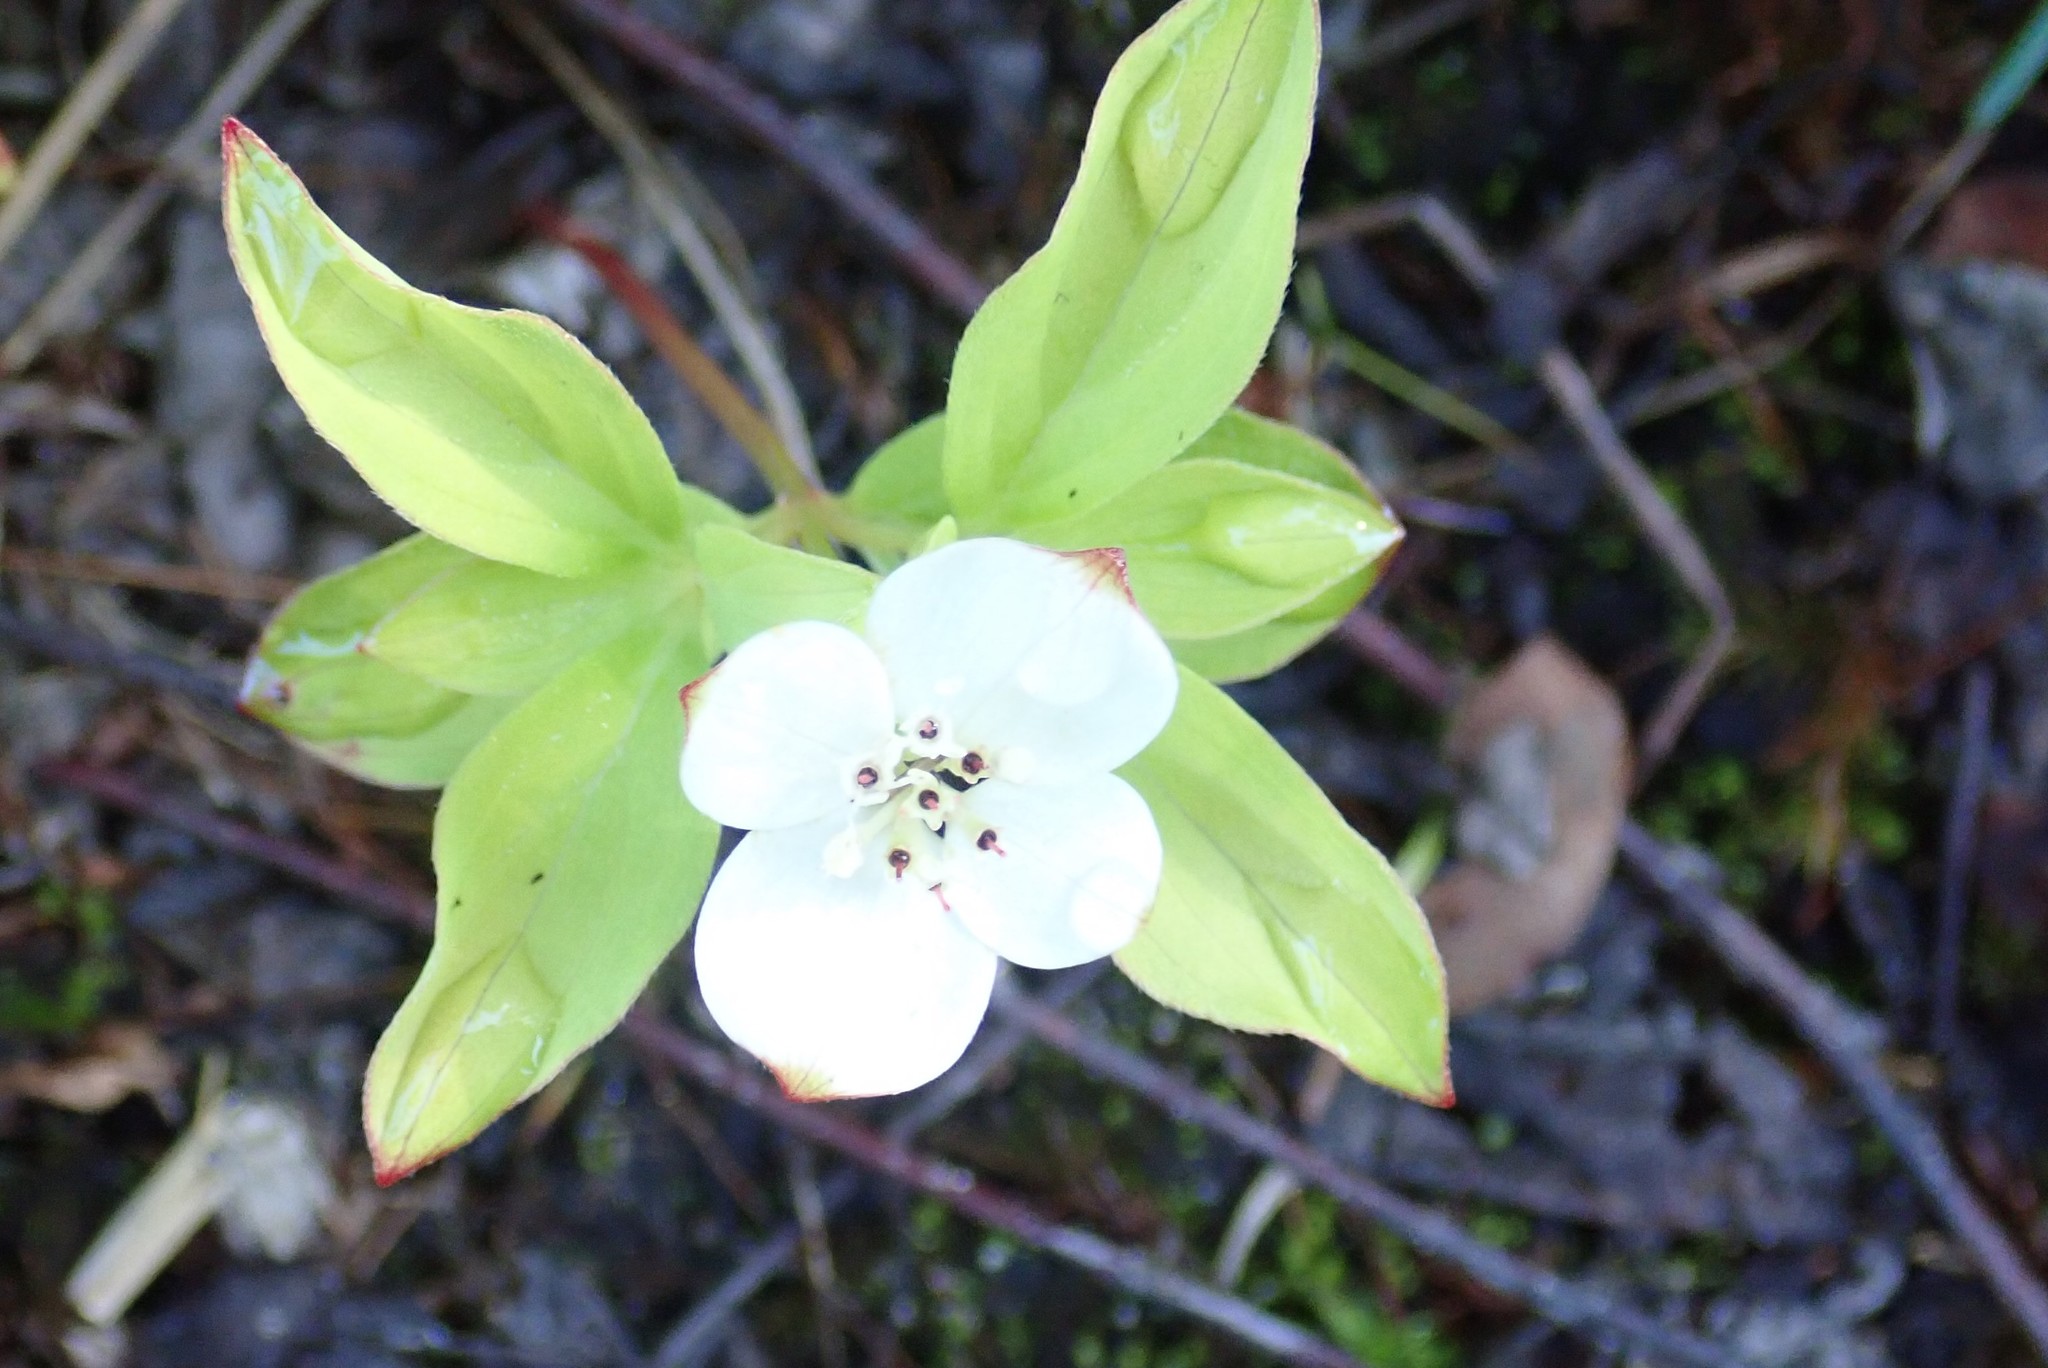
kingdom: Plantae
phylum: Tracheophyta
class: Magnoliopsida
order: Cornales
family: Cornaceae
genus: Cornus
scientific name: Cornus canadensis
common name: Creeping dogwood
